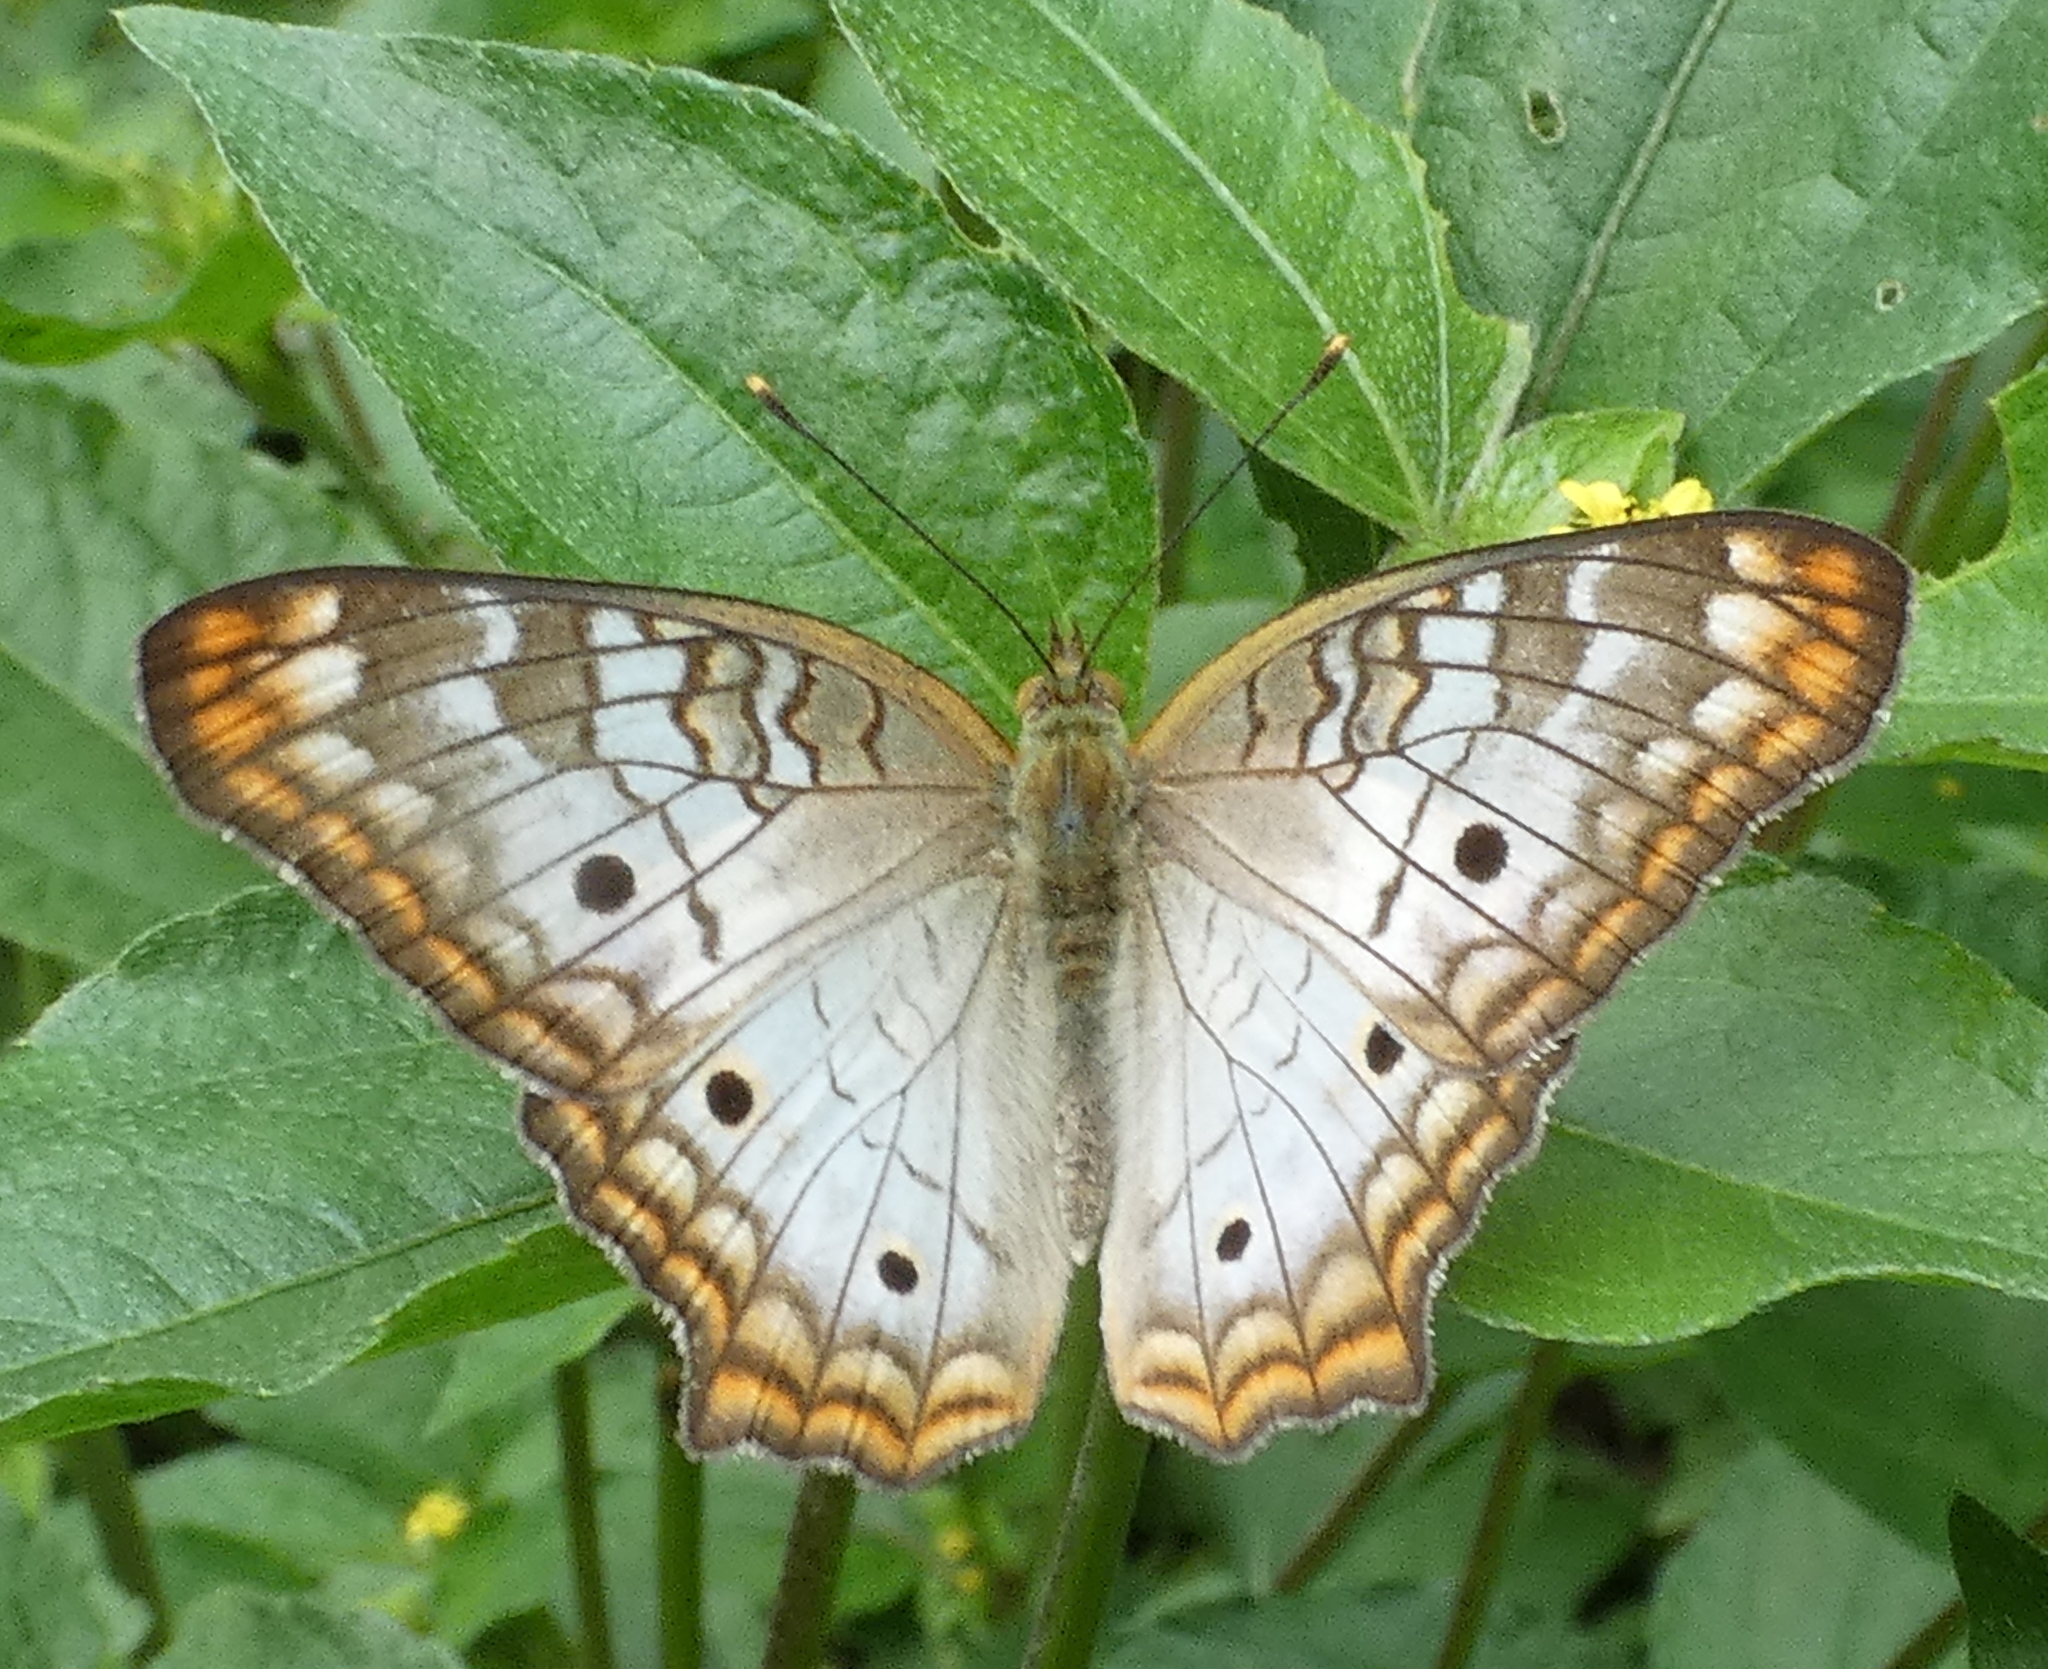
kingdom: Animalia
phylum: Arthropoda
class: Insecta
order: Lepidoptera
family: Nymphalidae
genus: Anartia
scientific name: Anartia jatrophae
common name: White peacock
